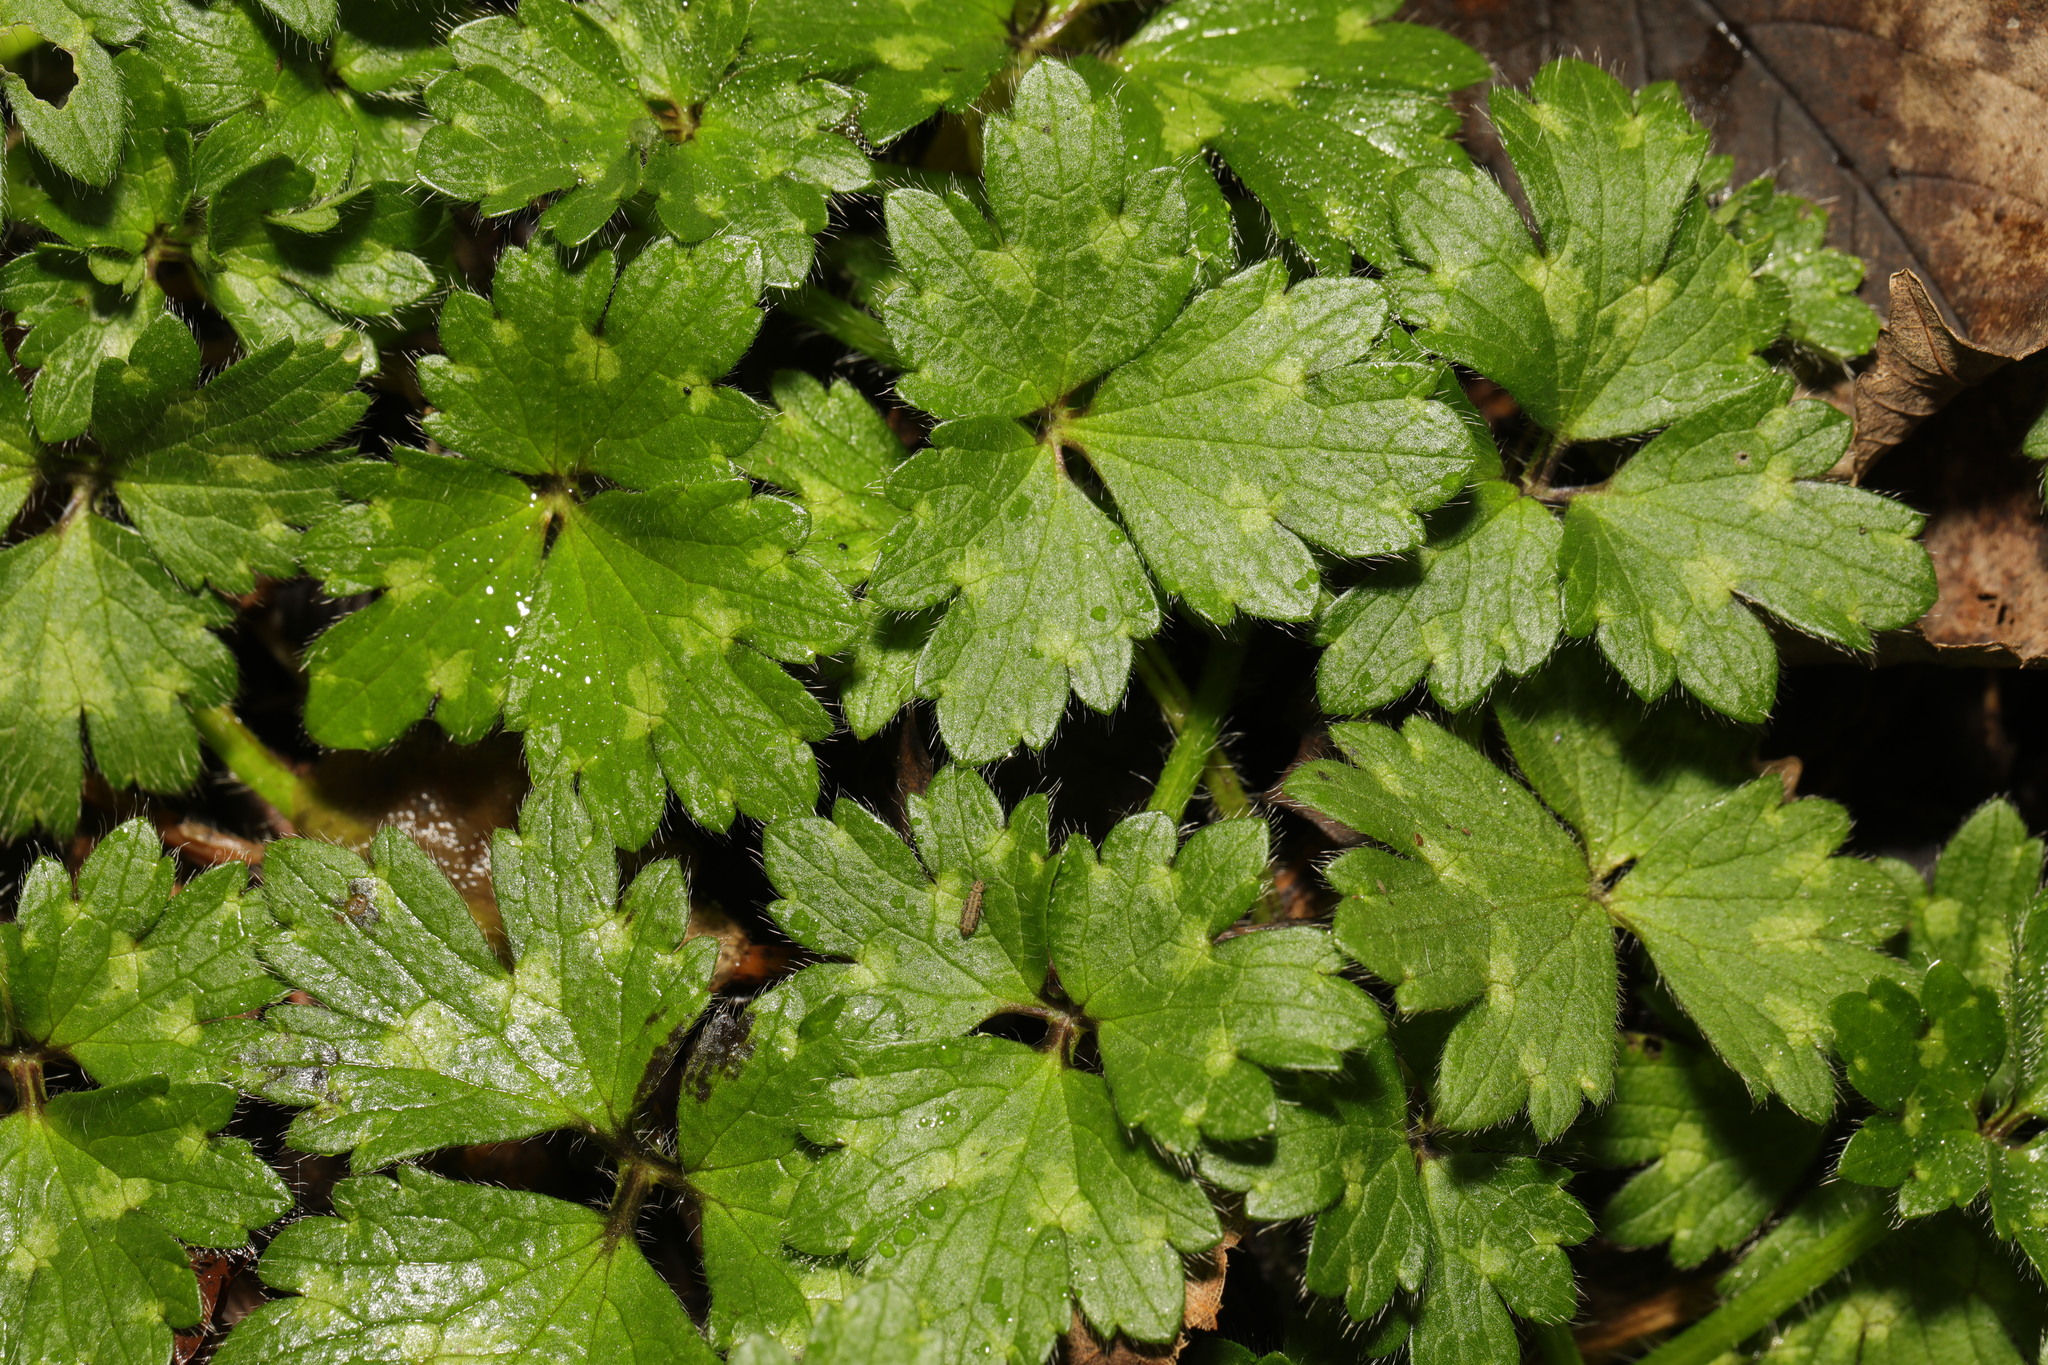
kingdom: Plantae
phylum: Tracheophyta
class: Magnoliopsida
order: Ranunculales
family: Ranunculaceae
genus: Ranunculus
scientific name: Ranunculus repens
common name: Creeping buttercup
